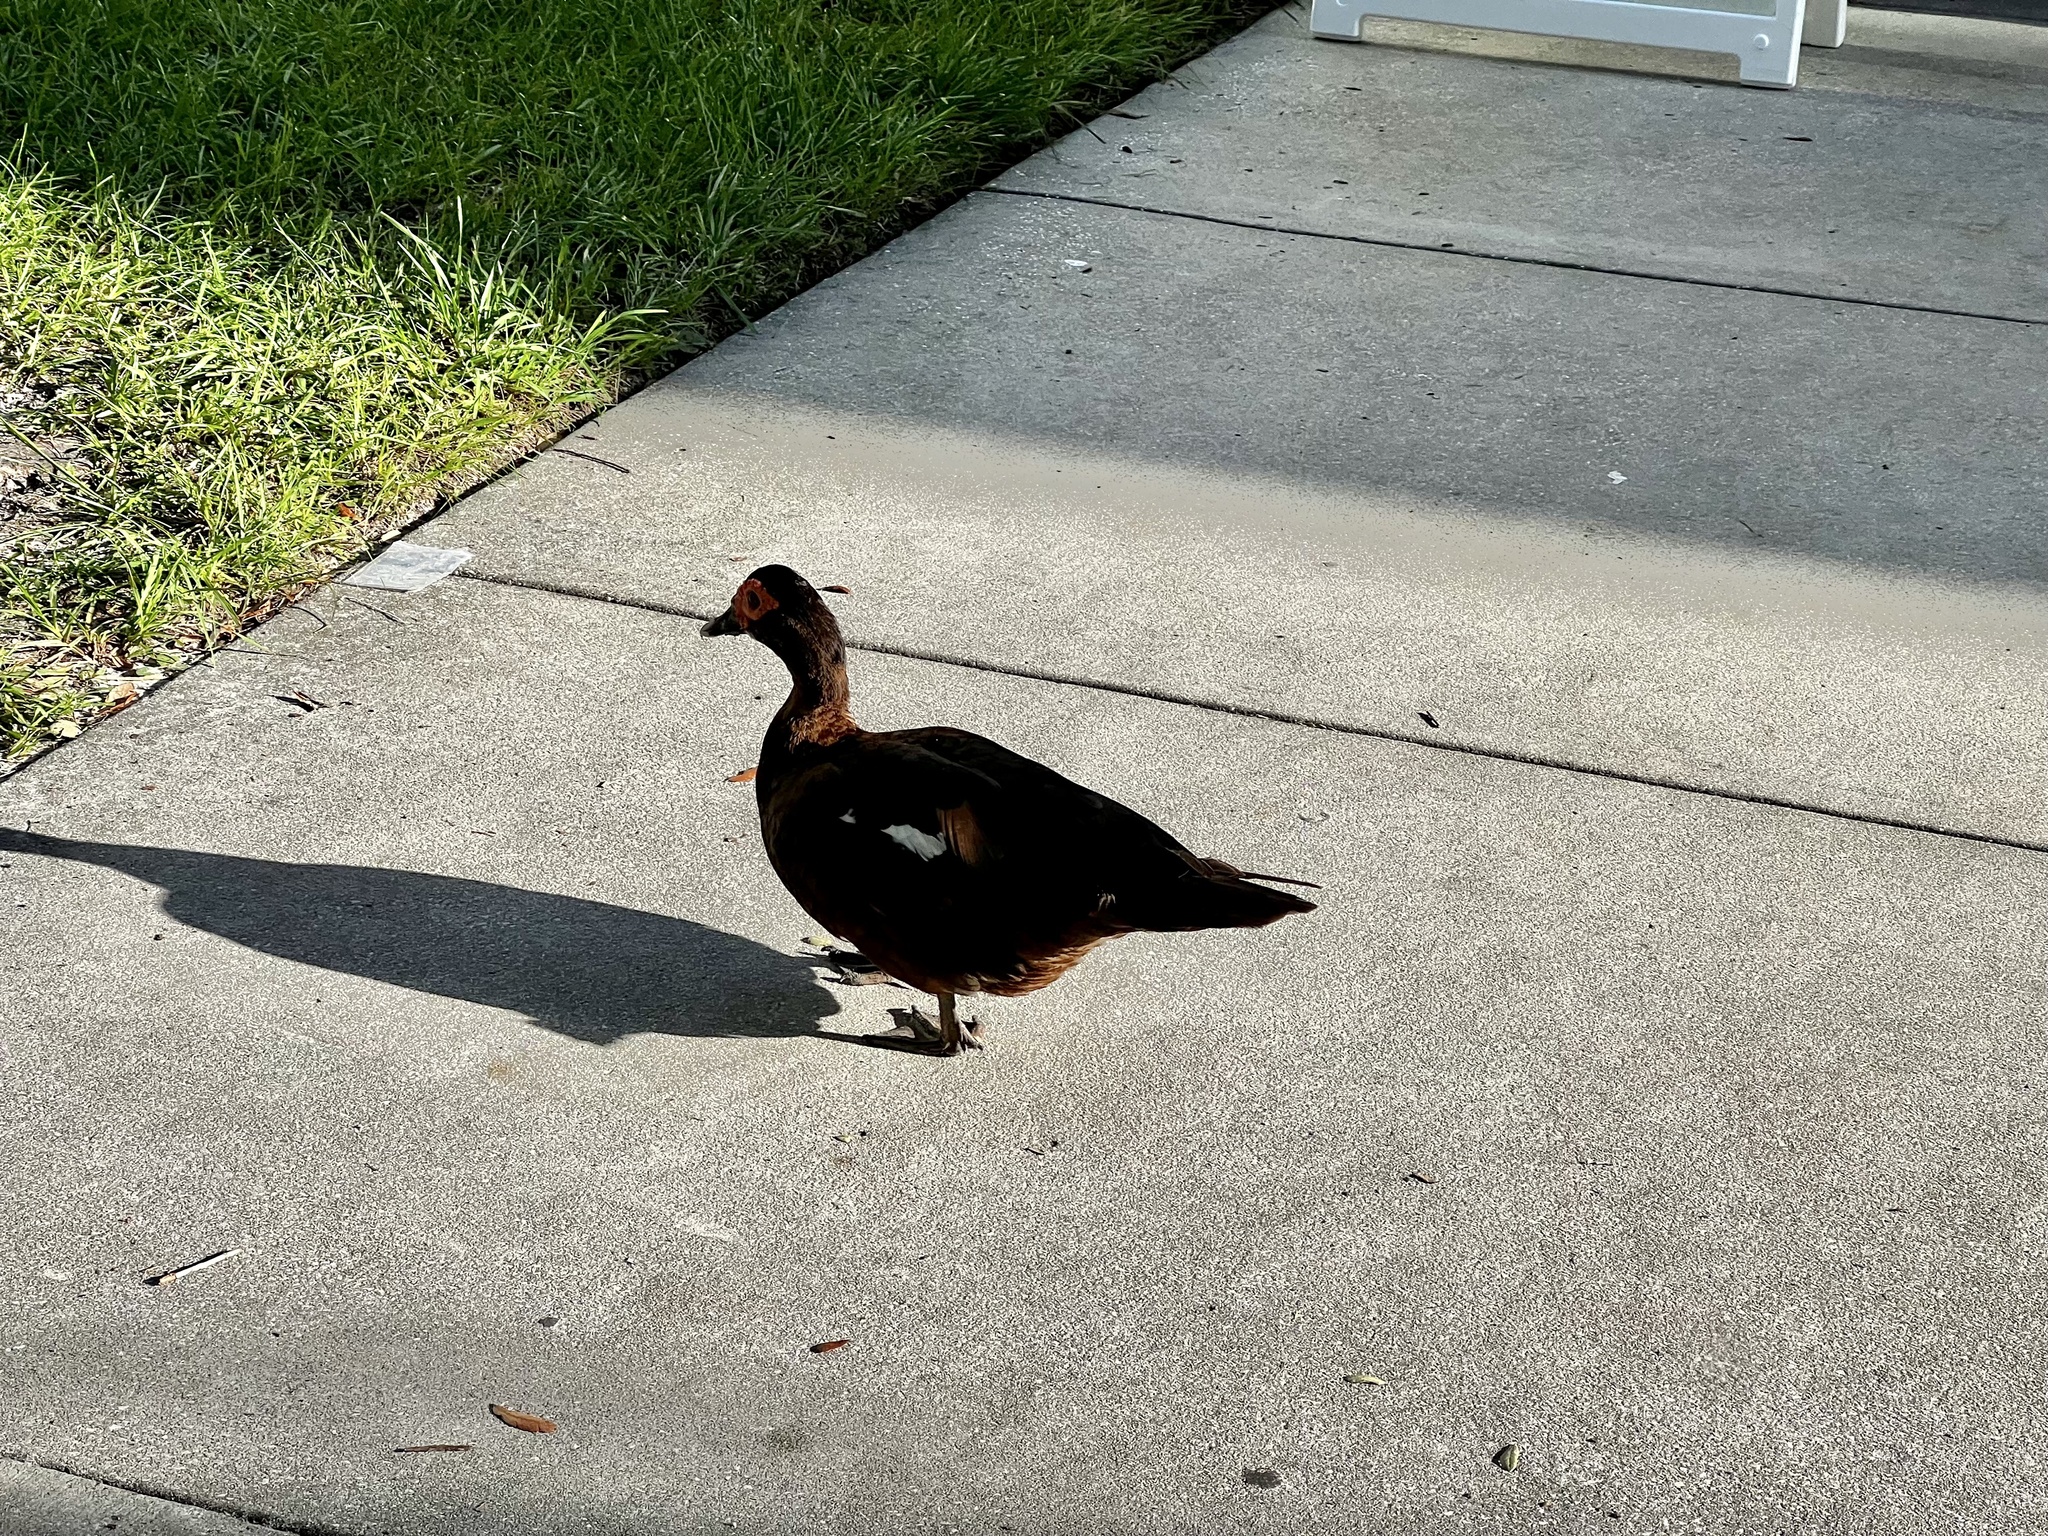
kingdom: Animalia
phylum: Chordata
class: Aves
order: Anseriformes
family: Anatidae
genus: Cairina
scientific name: Cairina moschata
